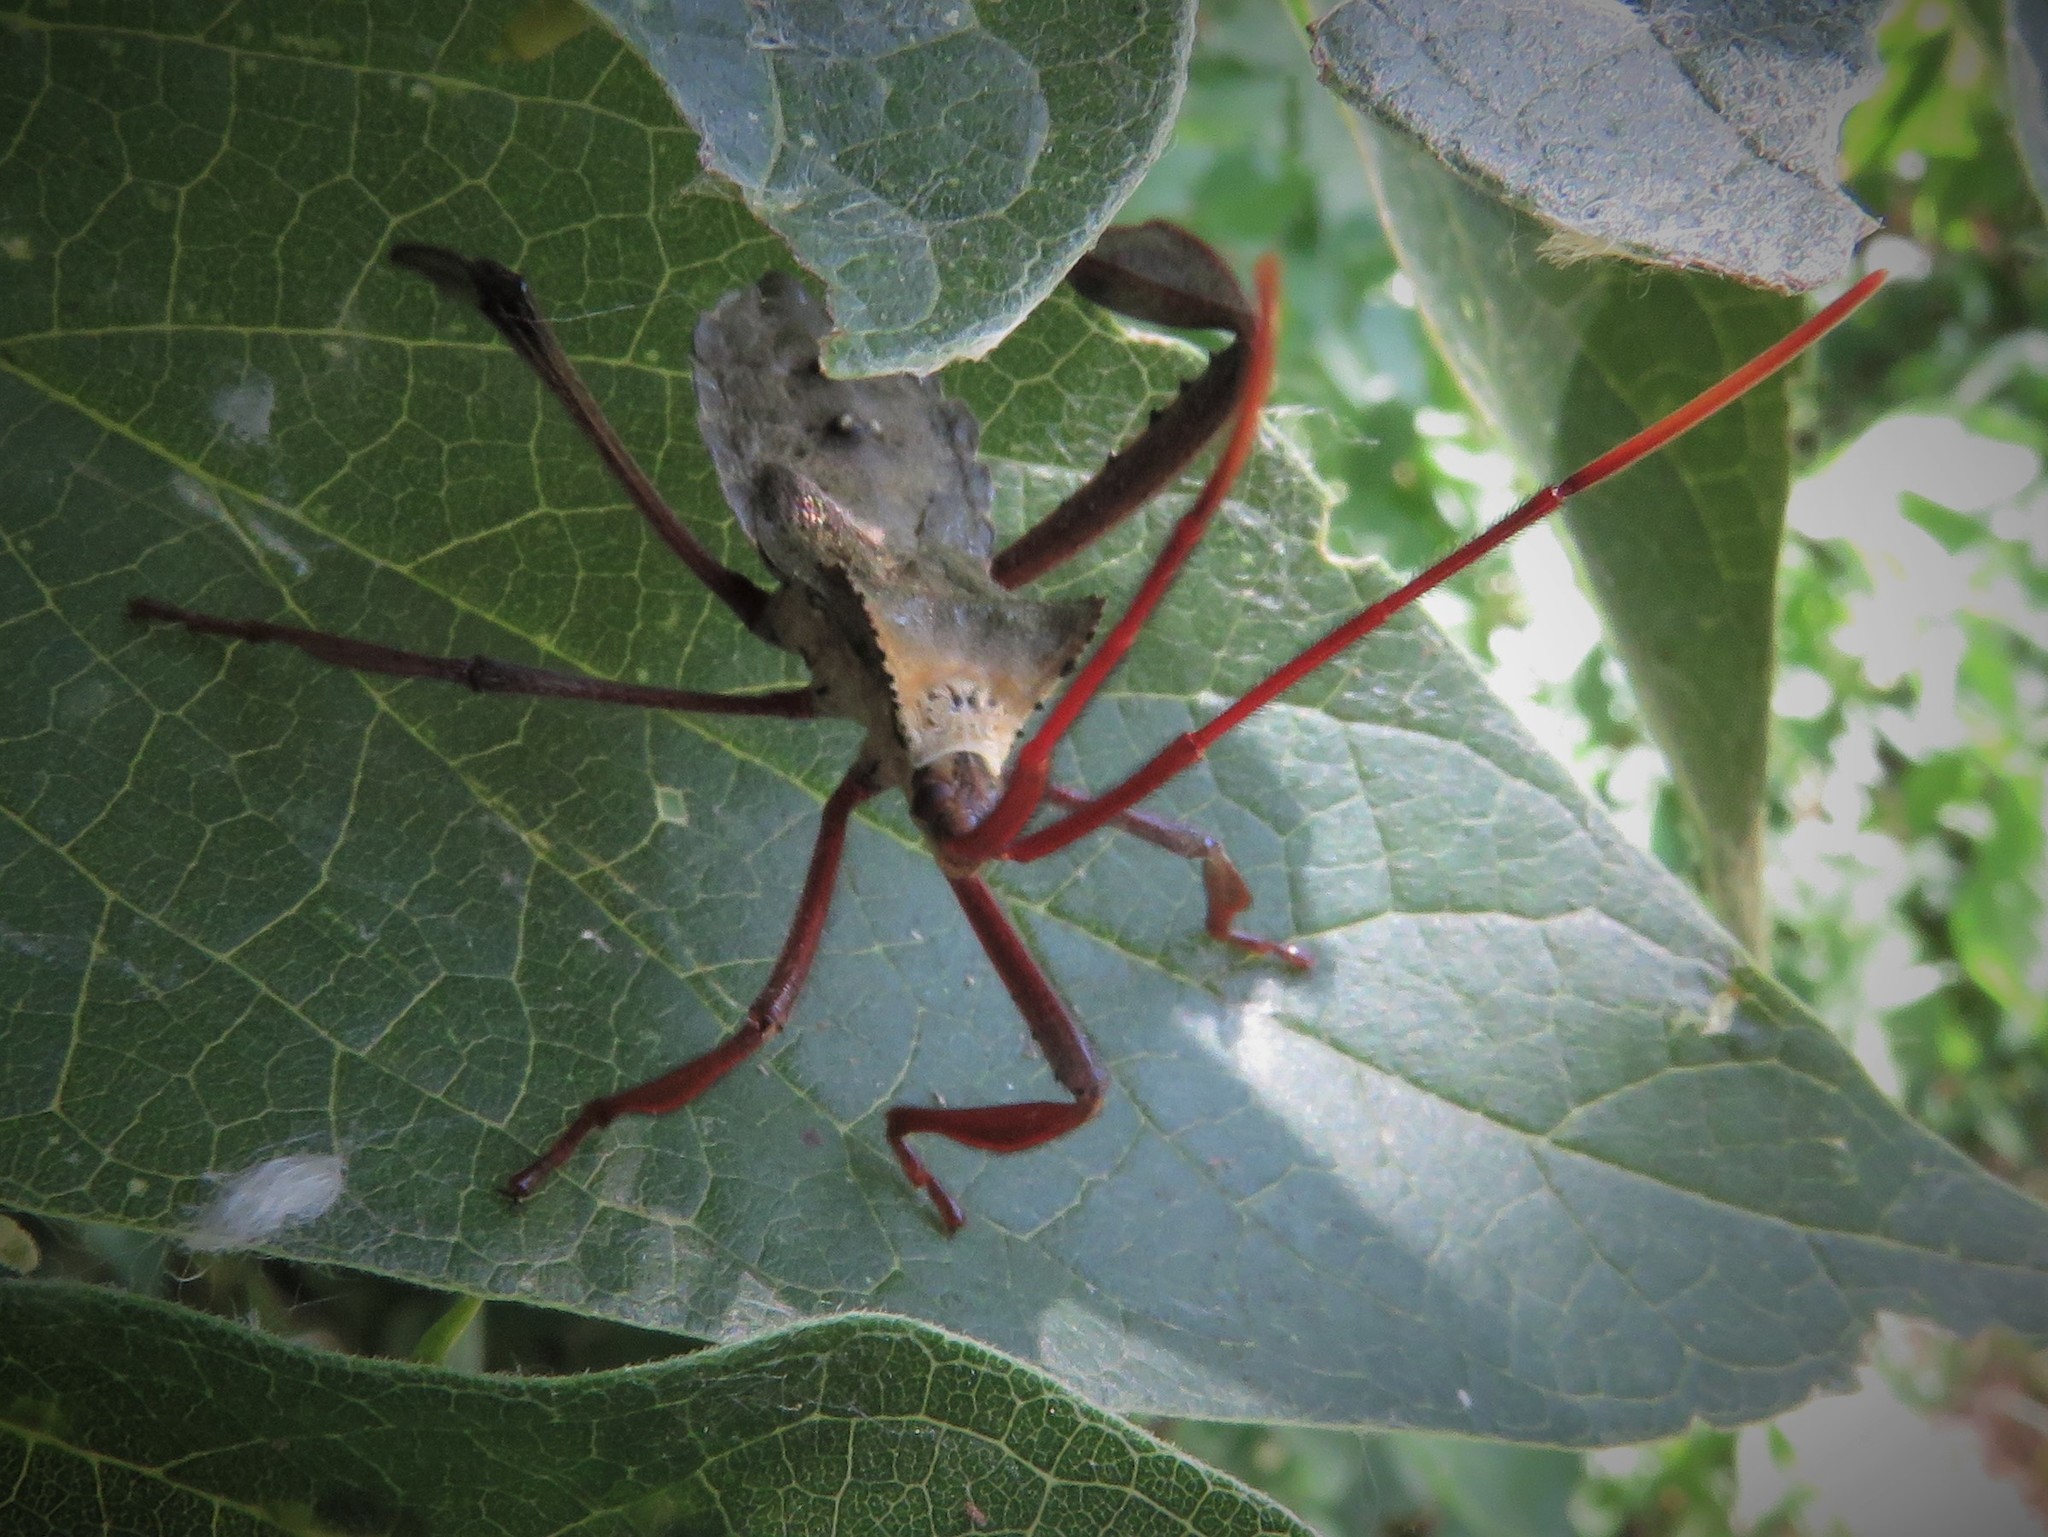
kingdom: Animalia
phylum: Arthropoda
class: Insecta
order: Hemiptera
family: Coreidae
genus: Acanthocephala
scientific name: Acanthocephala declivis
